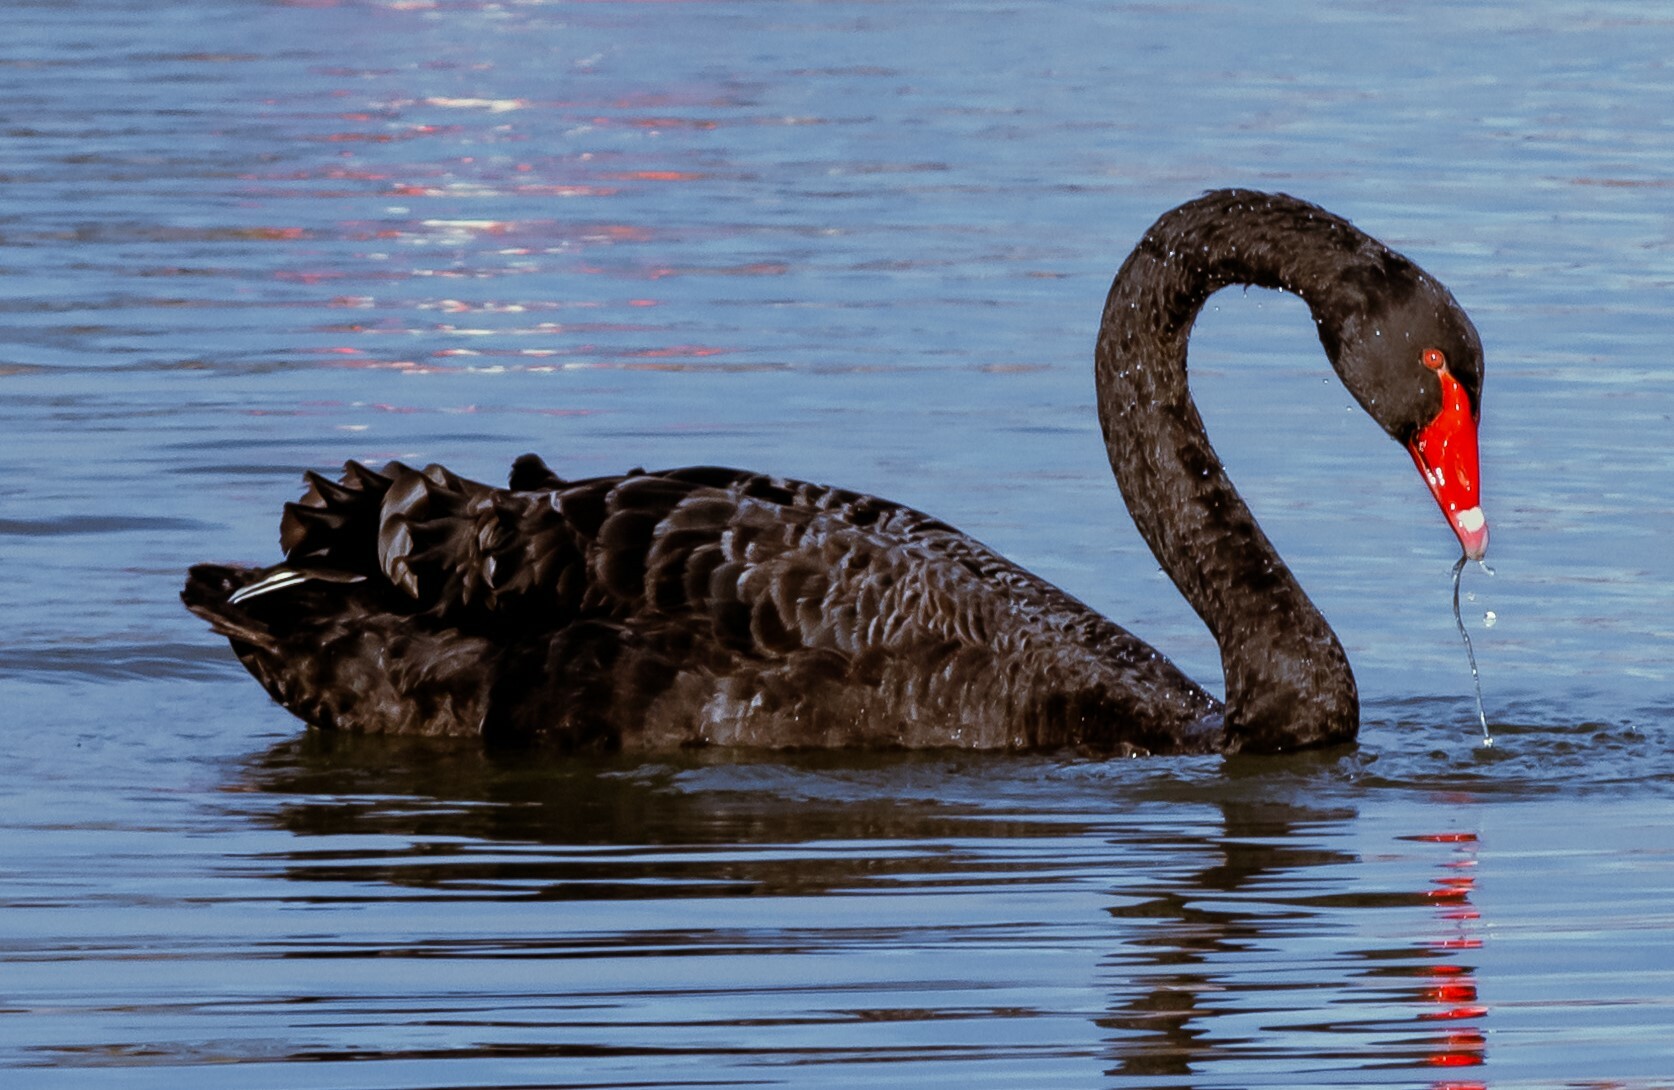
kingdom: Animalia
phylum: Chordata
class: Aves
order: Anseriformes
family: Anatidae
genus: Cygnus
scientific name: Cygnus atratus
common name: Black swan
